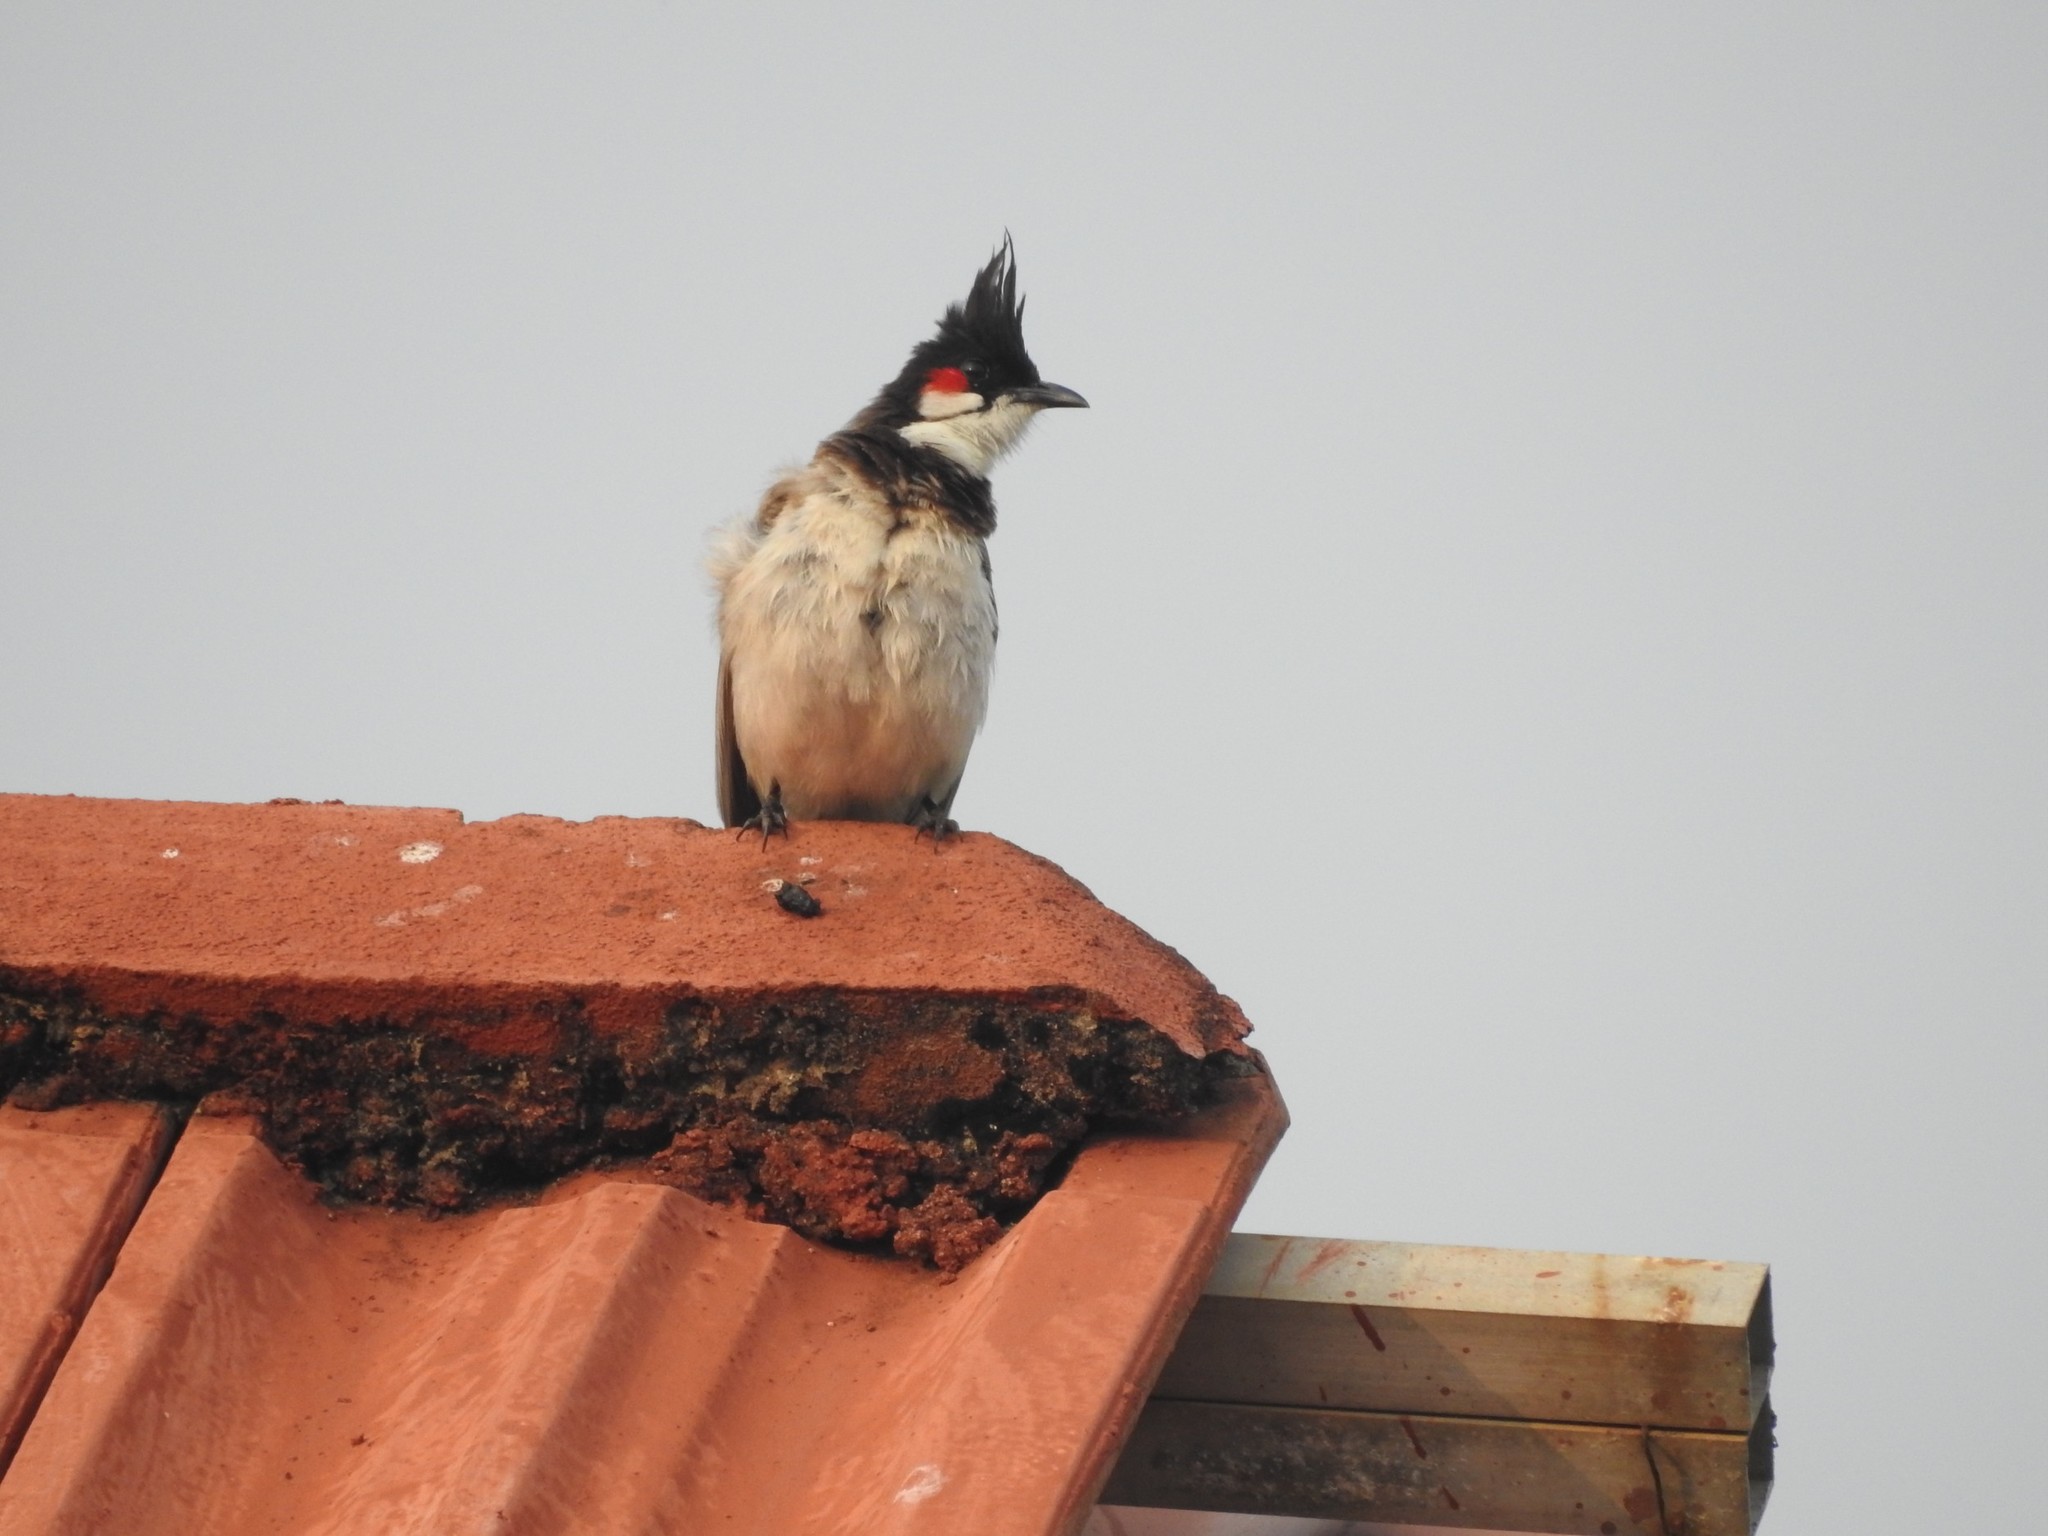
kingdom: Animalia
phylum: Chordata
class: Aves
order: Passeriformes
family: Pycnonotidae
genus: Pycnonotus
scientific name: Pycnonotus jocosus
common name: Red-whiskered bulbul
